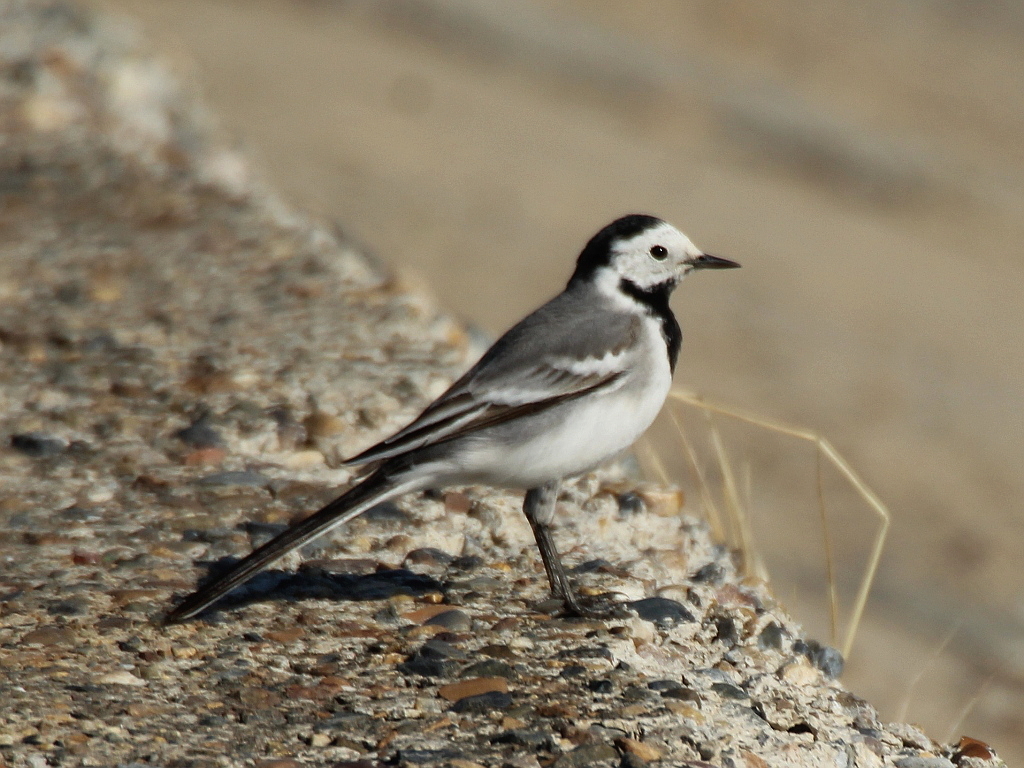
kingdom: Animalia
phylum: Chordata
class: Aves
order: Passeriformes
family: Motacillidae
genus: Motacilla
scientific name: Motacilla alba
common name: White wagtail
